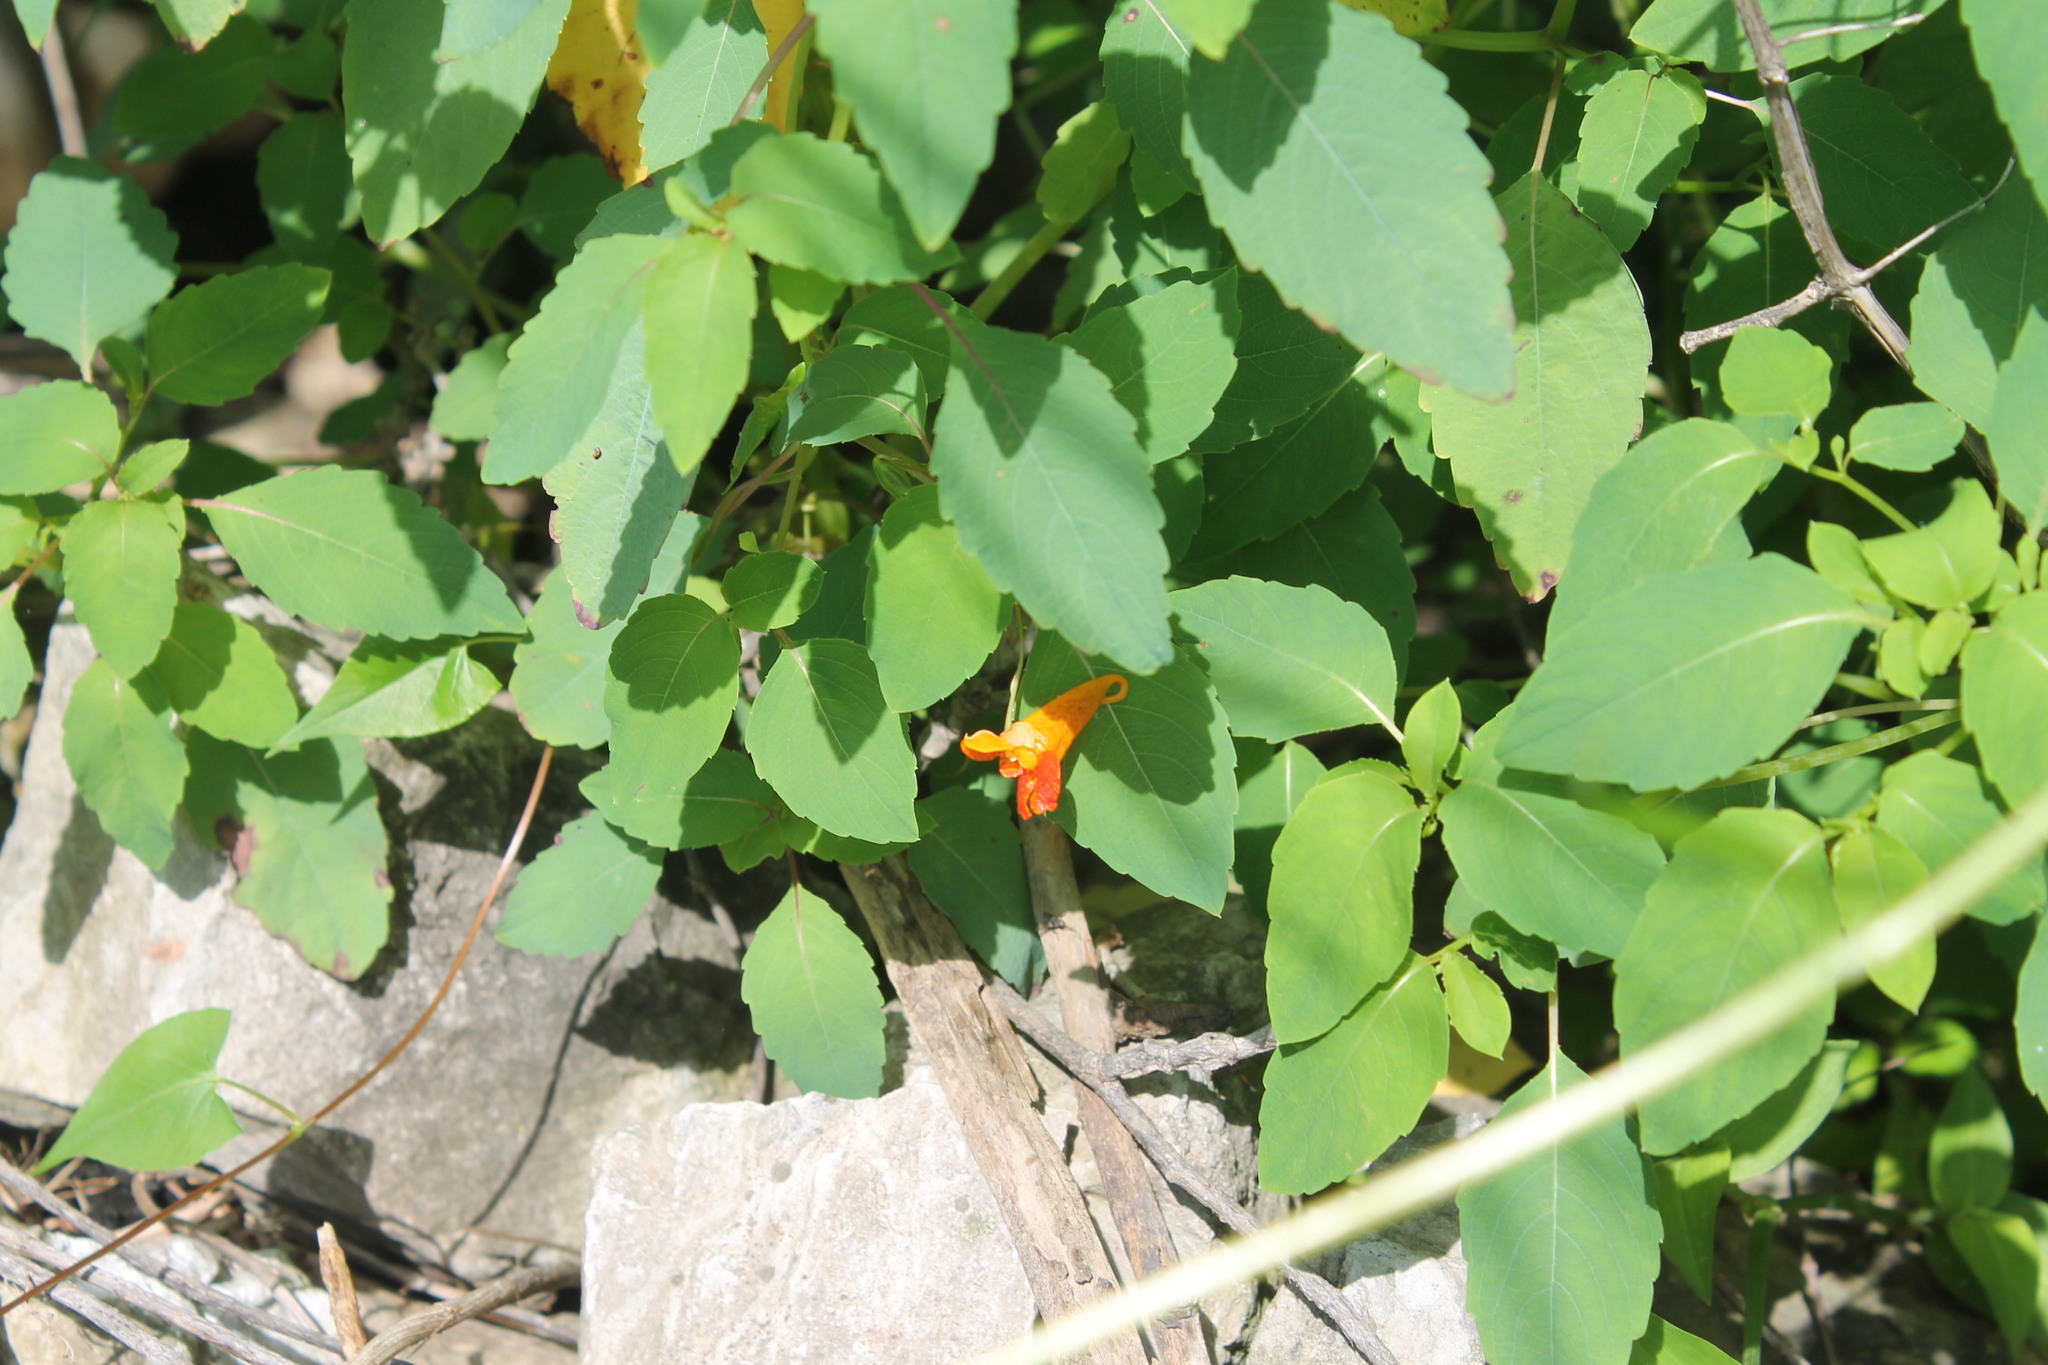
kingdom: Plantae
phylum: Tracheophyta
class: Magnoliopsida
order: Ericales
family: Balsaminaceae
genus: Impatiens
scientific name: Impatiens capensis
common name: Orange balsam
